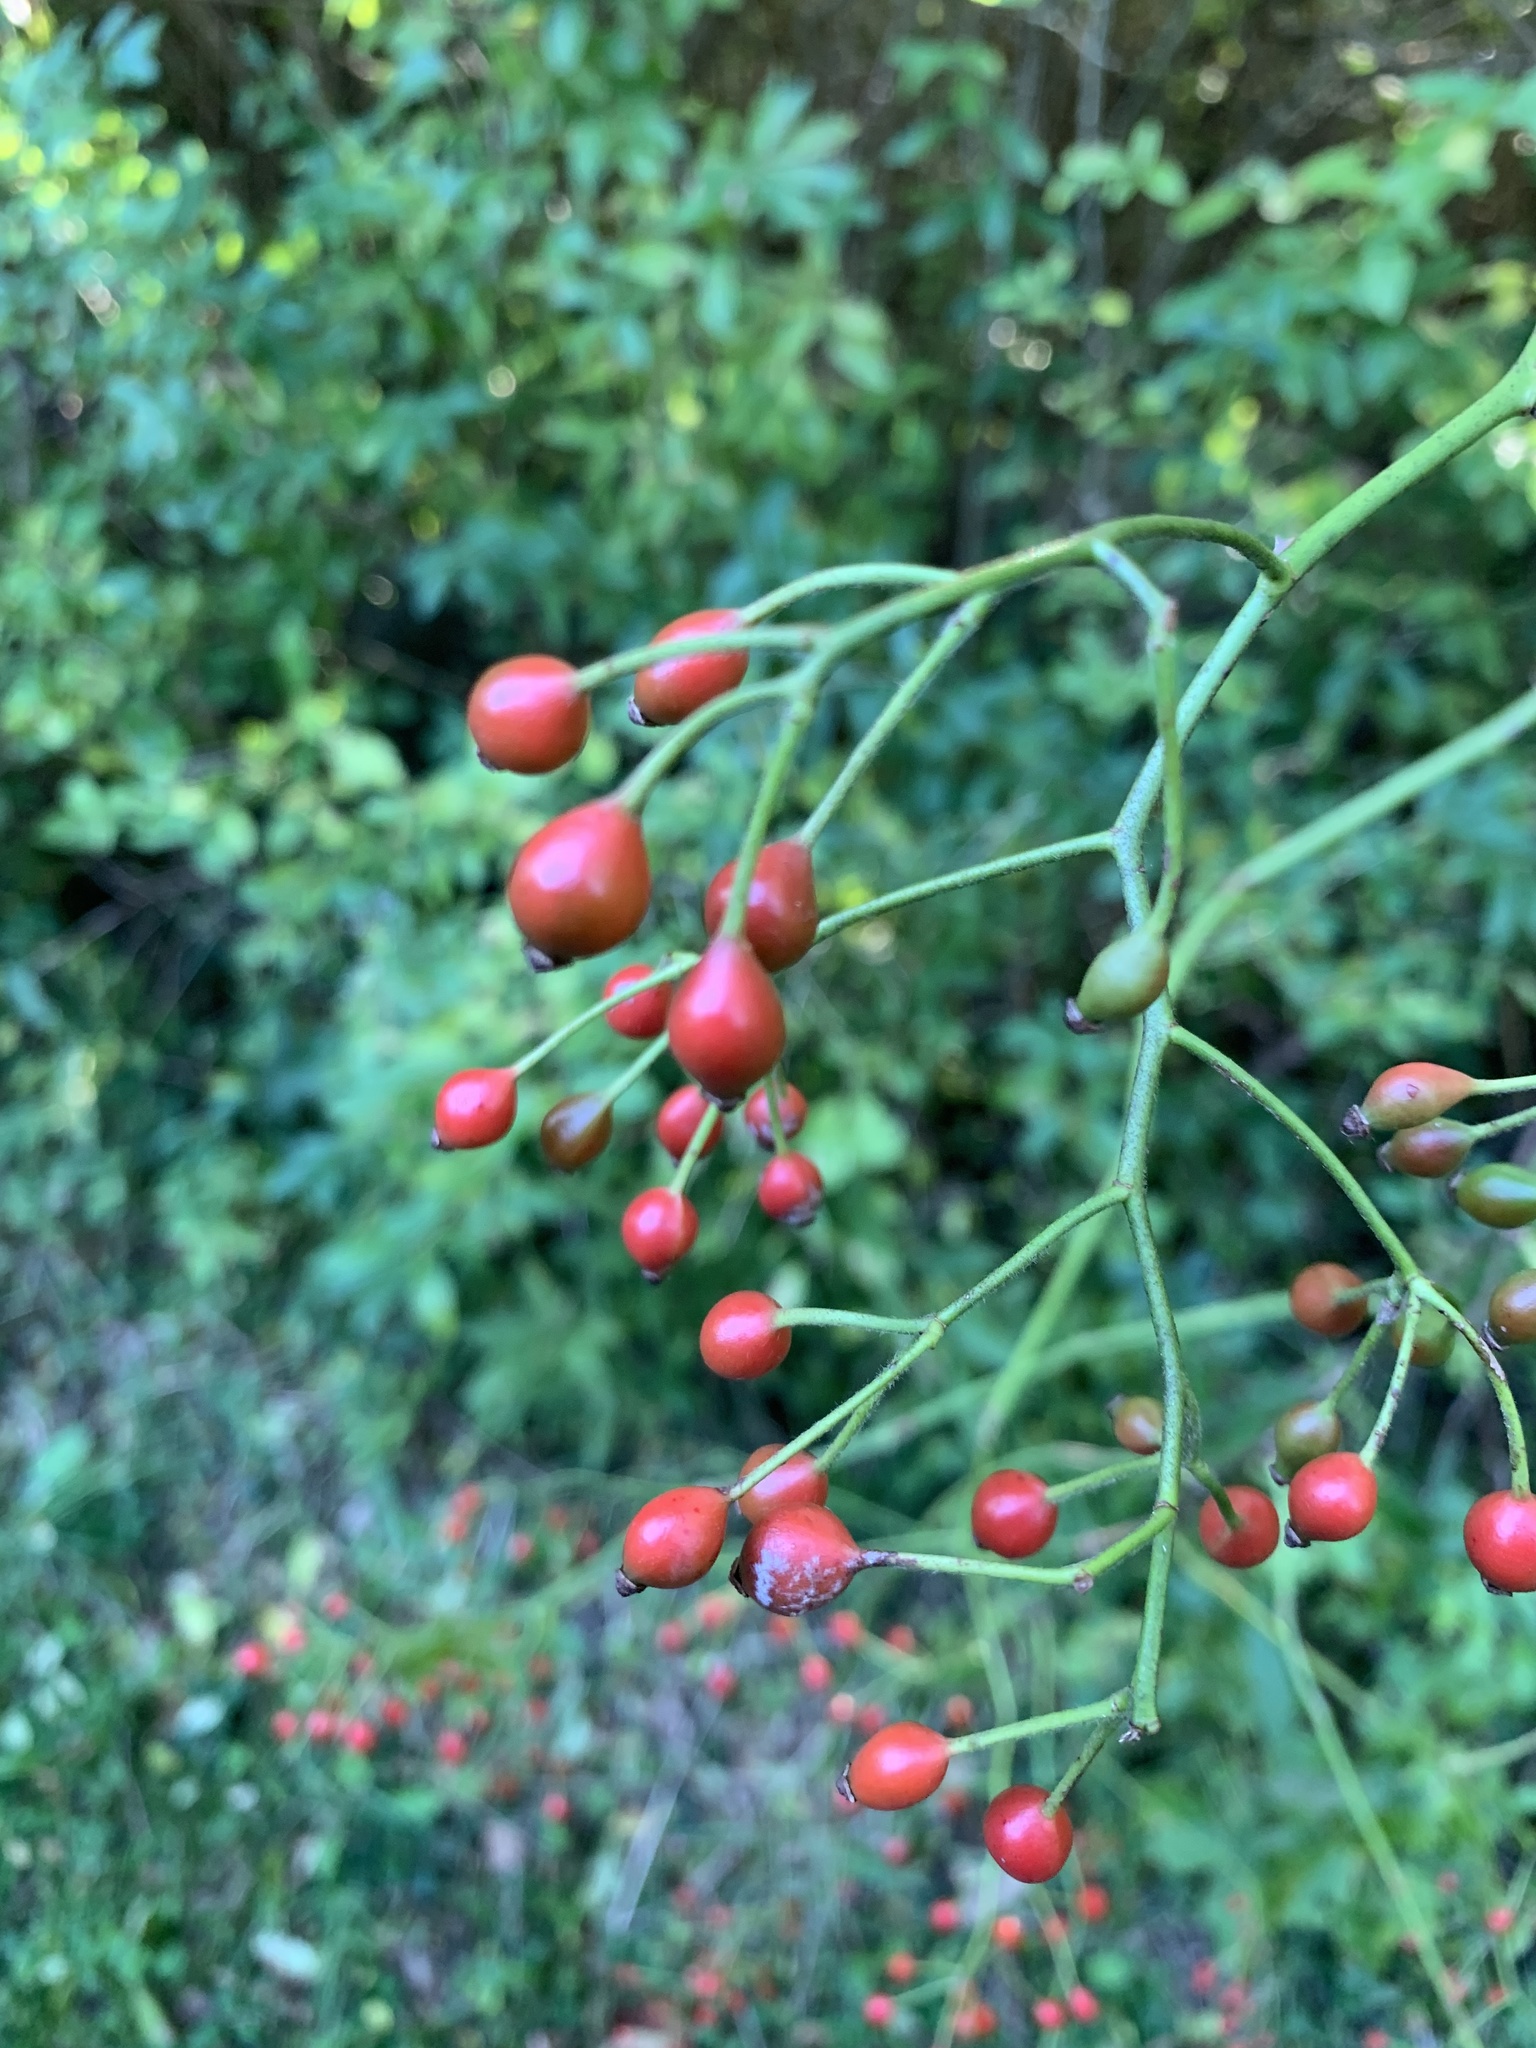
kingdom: Plantae
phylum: Tracheophyta
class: Magnoliopsida
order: Rosales
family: Rosaceae
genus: Rosa
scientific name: Rosa multiflora
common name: Multiflora rose
